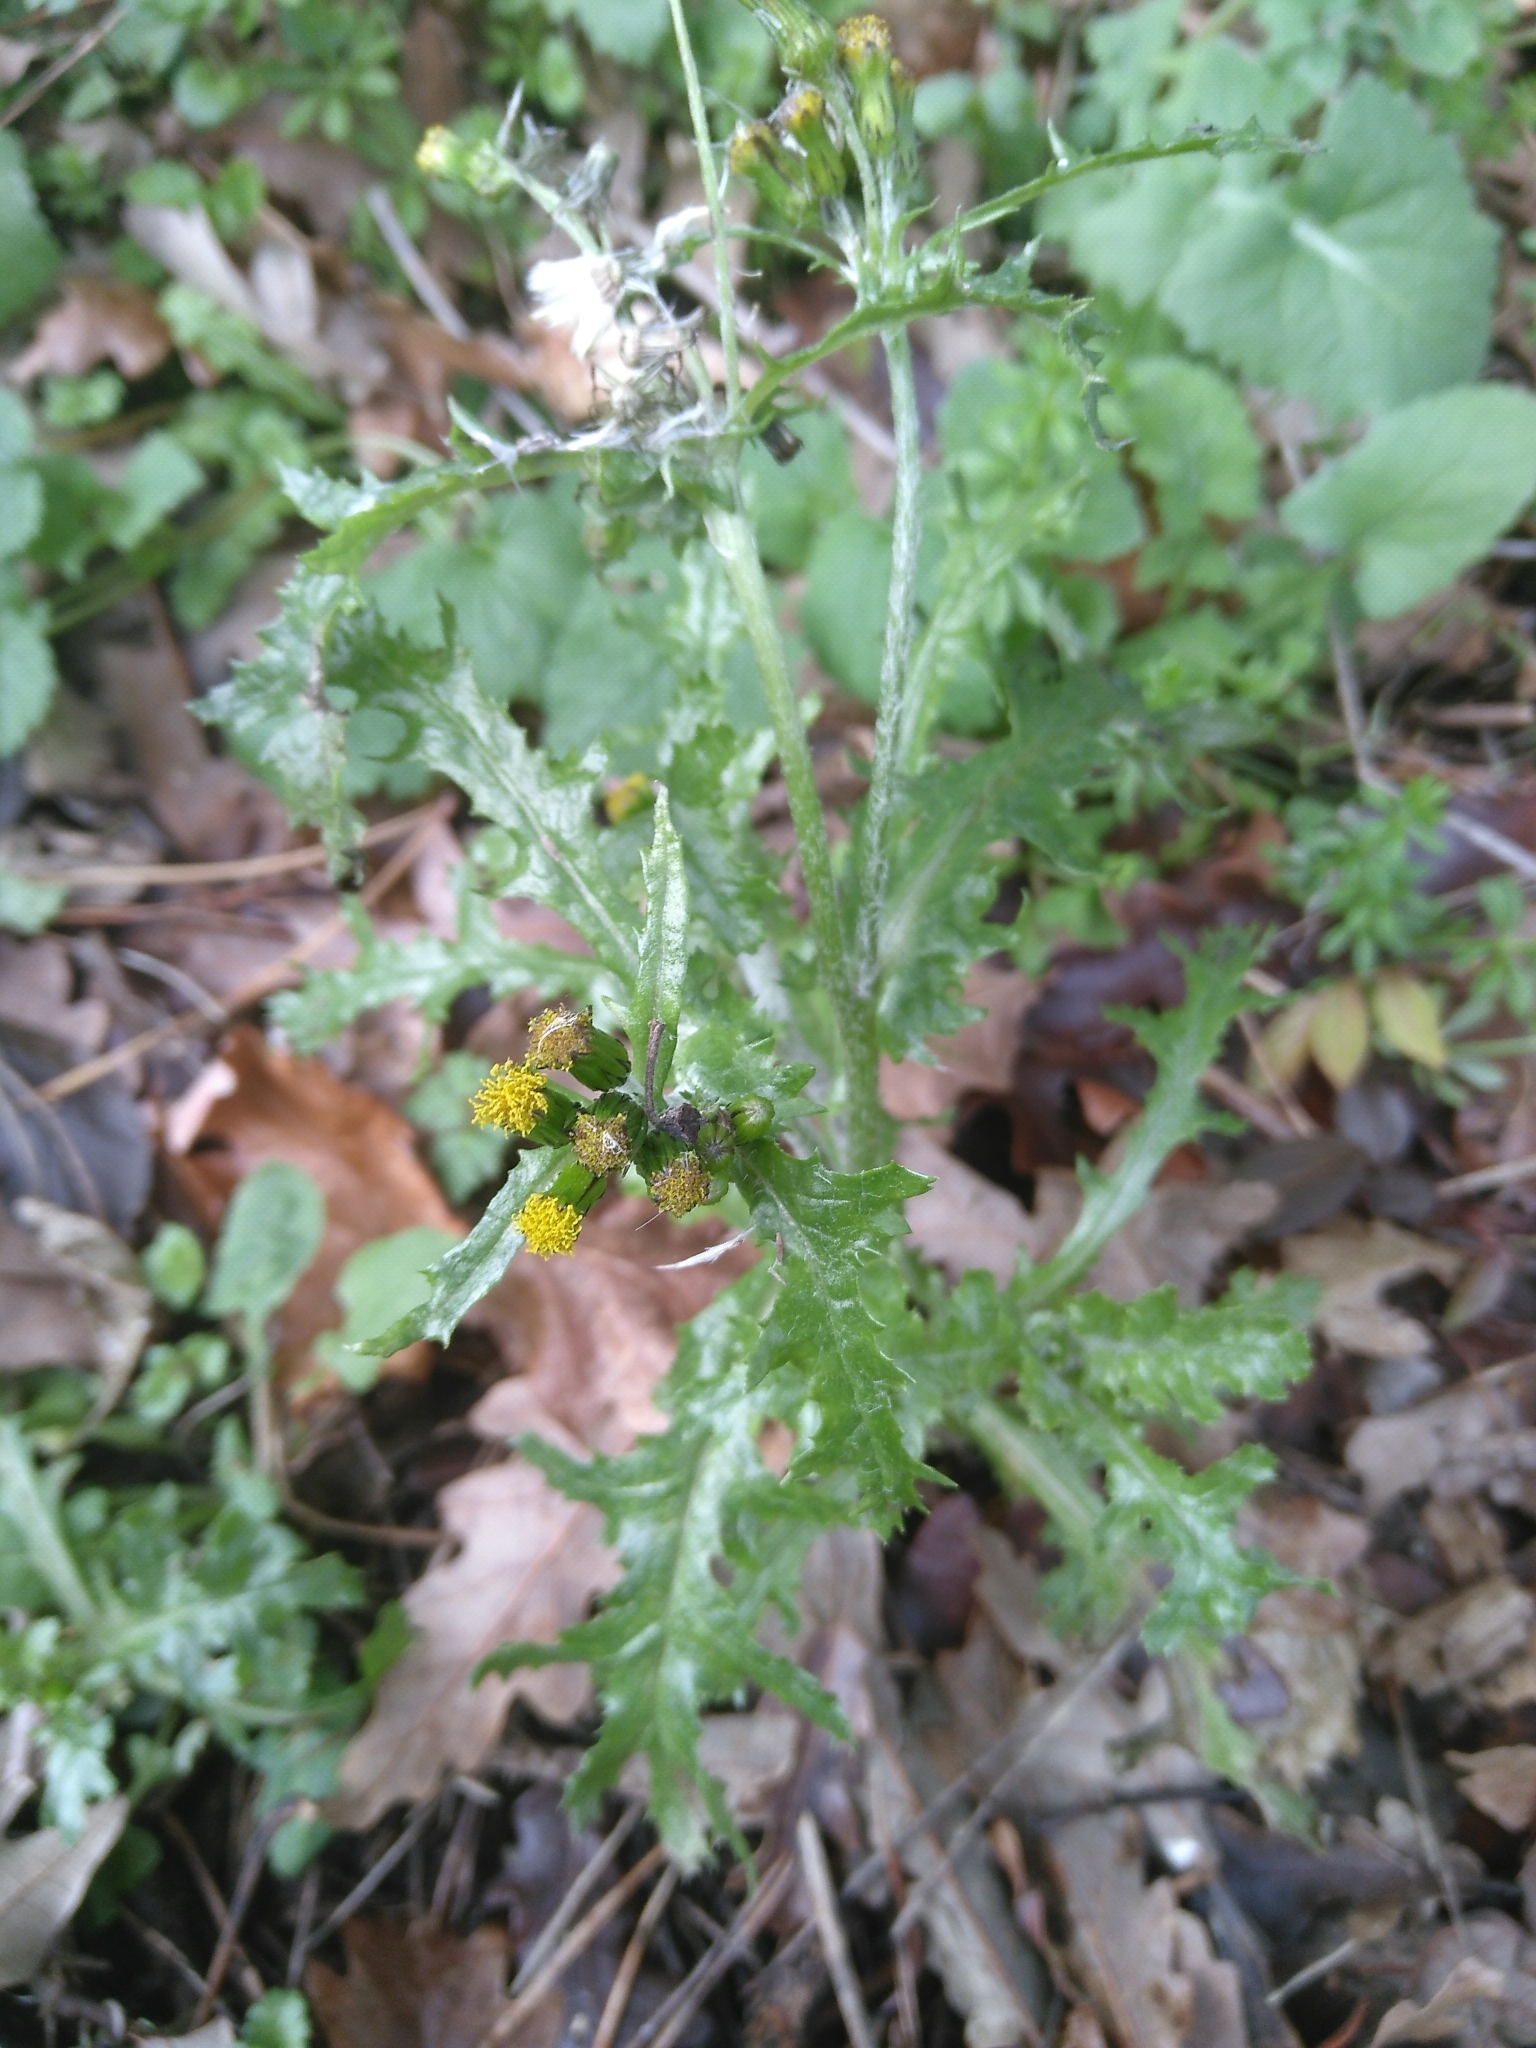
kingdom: Plantae
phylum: Tracheophyta
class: Magnoliopsida
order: Asterales
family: Asteraceae
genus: Senecio
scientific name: Senecio vulgaris
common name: Old-man-in-the-spring
